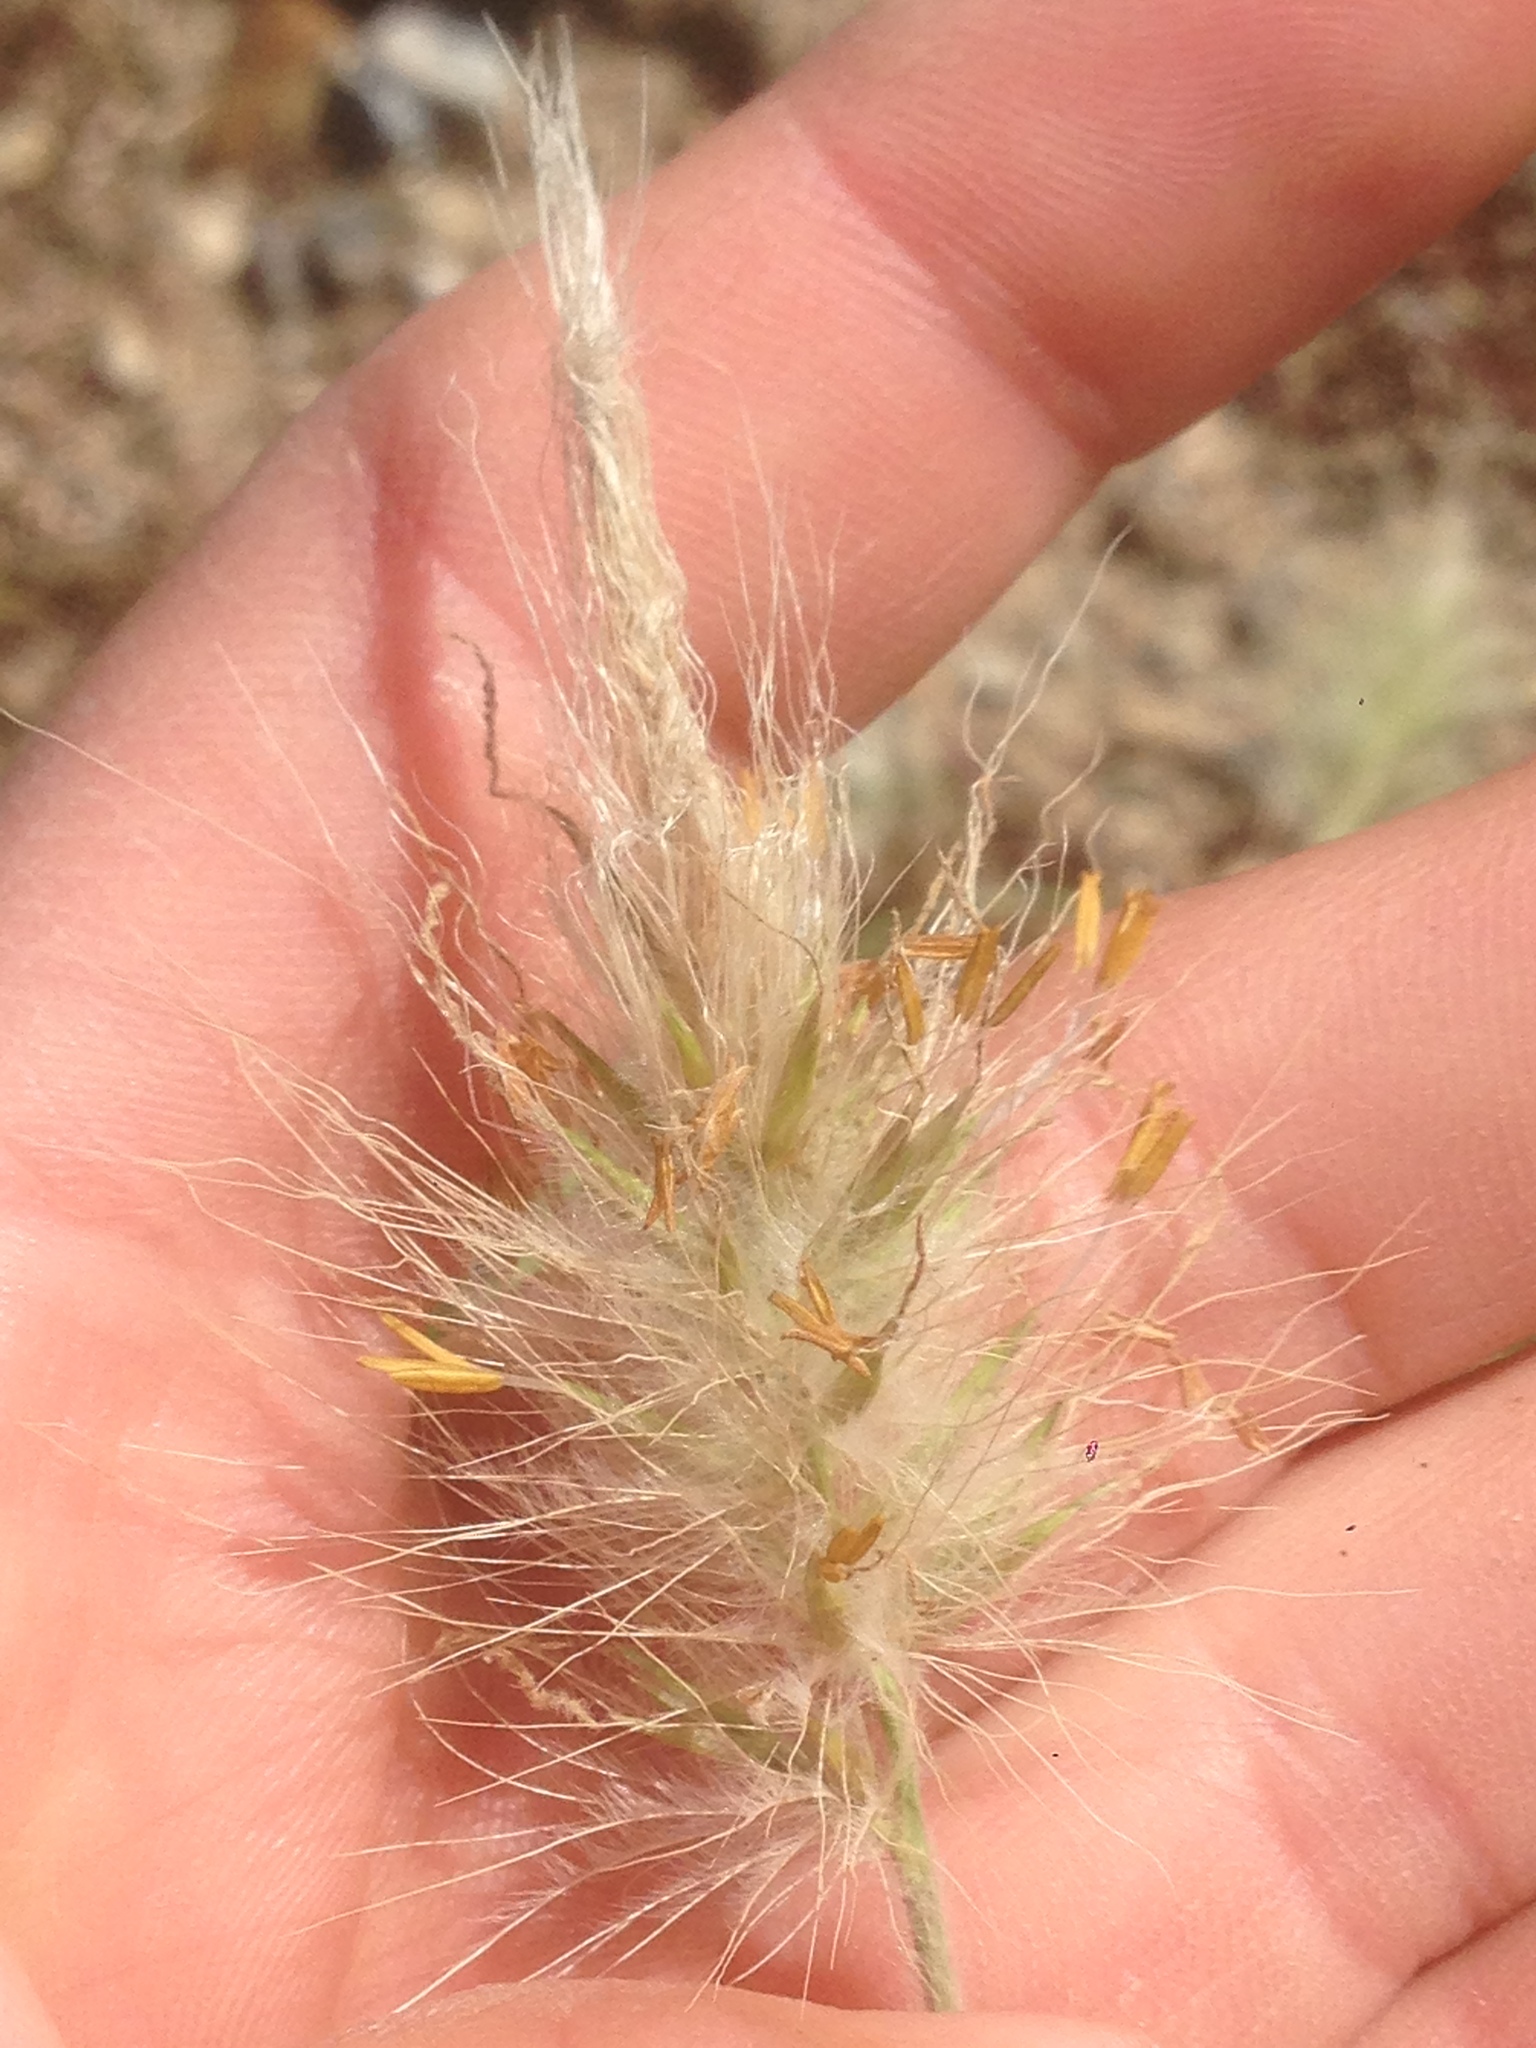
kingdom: Plantae
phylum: Tracheophyta
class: Liliopsida
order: Poales
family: Poaceae
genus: Cenchrus
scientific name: Cenchrus longisetus
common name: Feathertop
